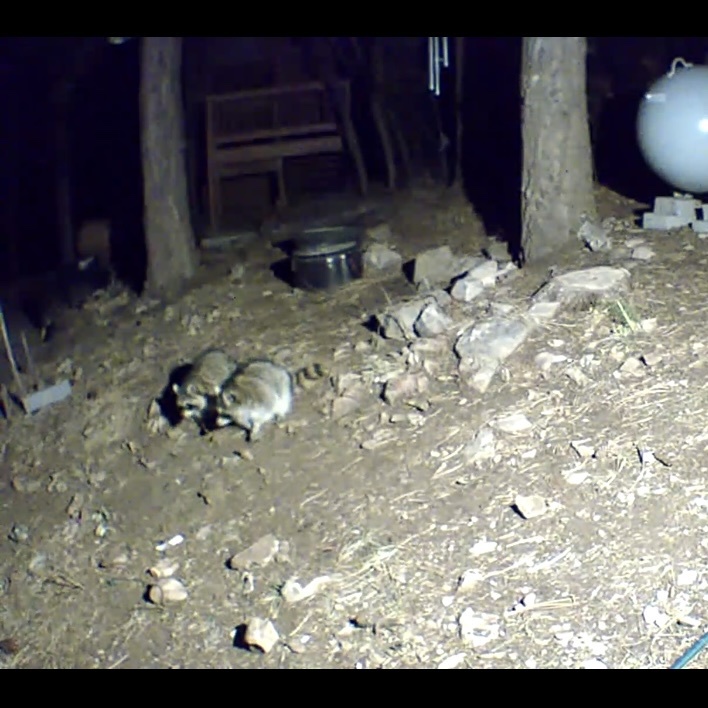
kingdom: Animalia
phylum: Chordata
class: Mammalia
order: Carnivora
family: Procyonidae
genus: Procyon
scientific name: Procyon lotor
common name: Raccoon
